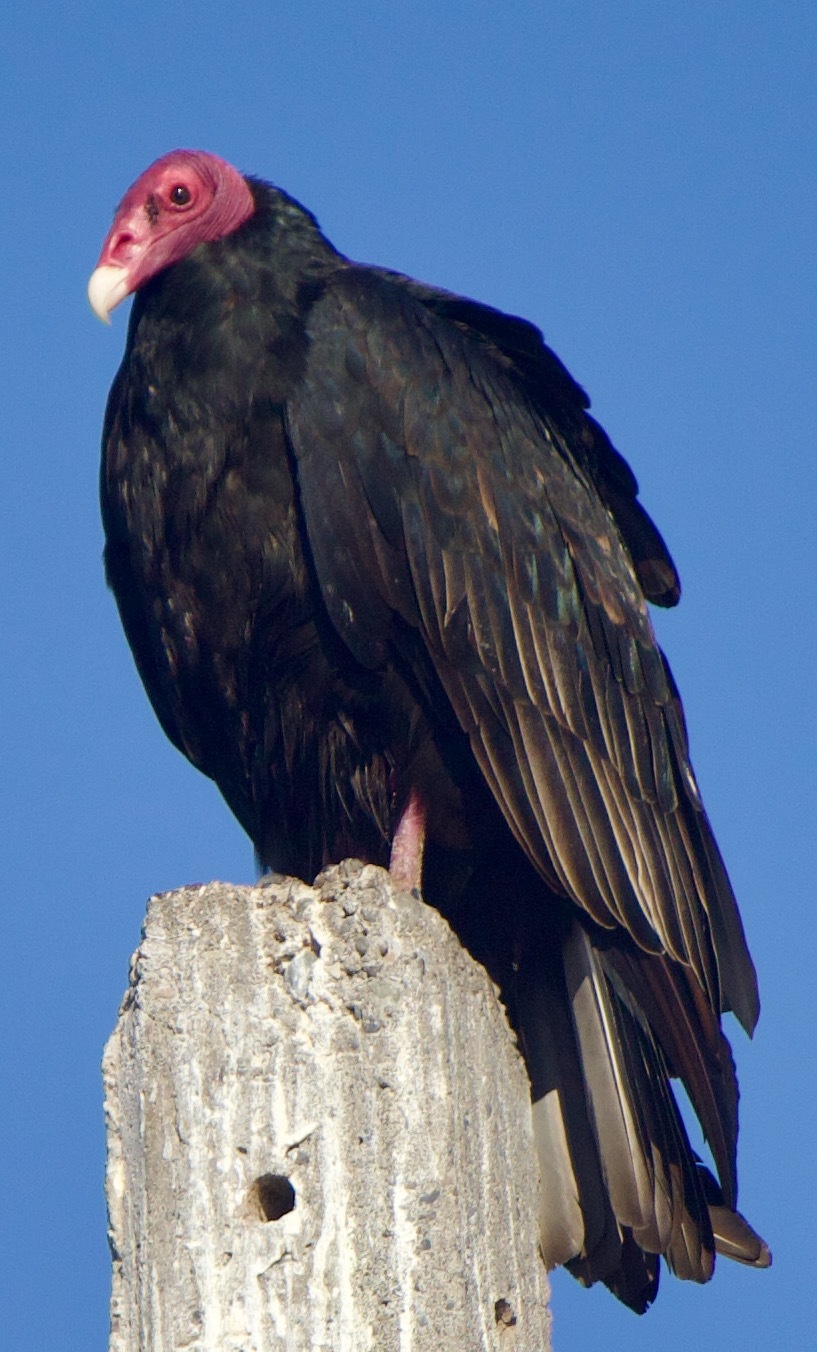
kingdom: Animalia
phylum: Chordata
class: Aves
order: Accipitriformes
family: Cathartidae
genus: Cathartes
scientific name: Cathartes aura
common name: Turkey vulture
